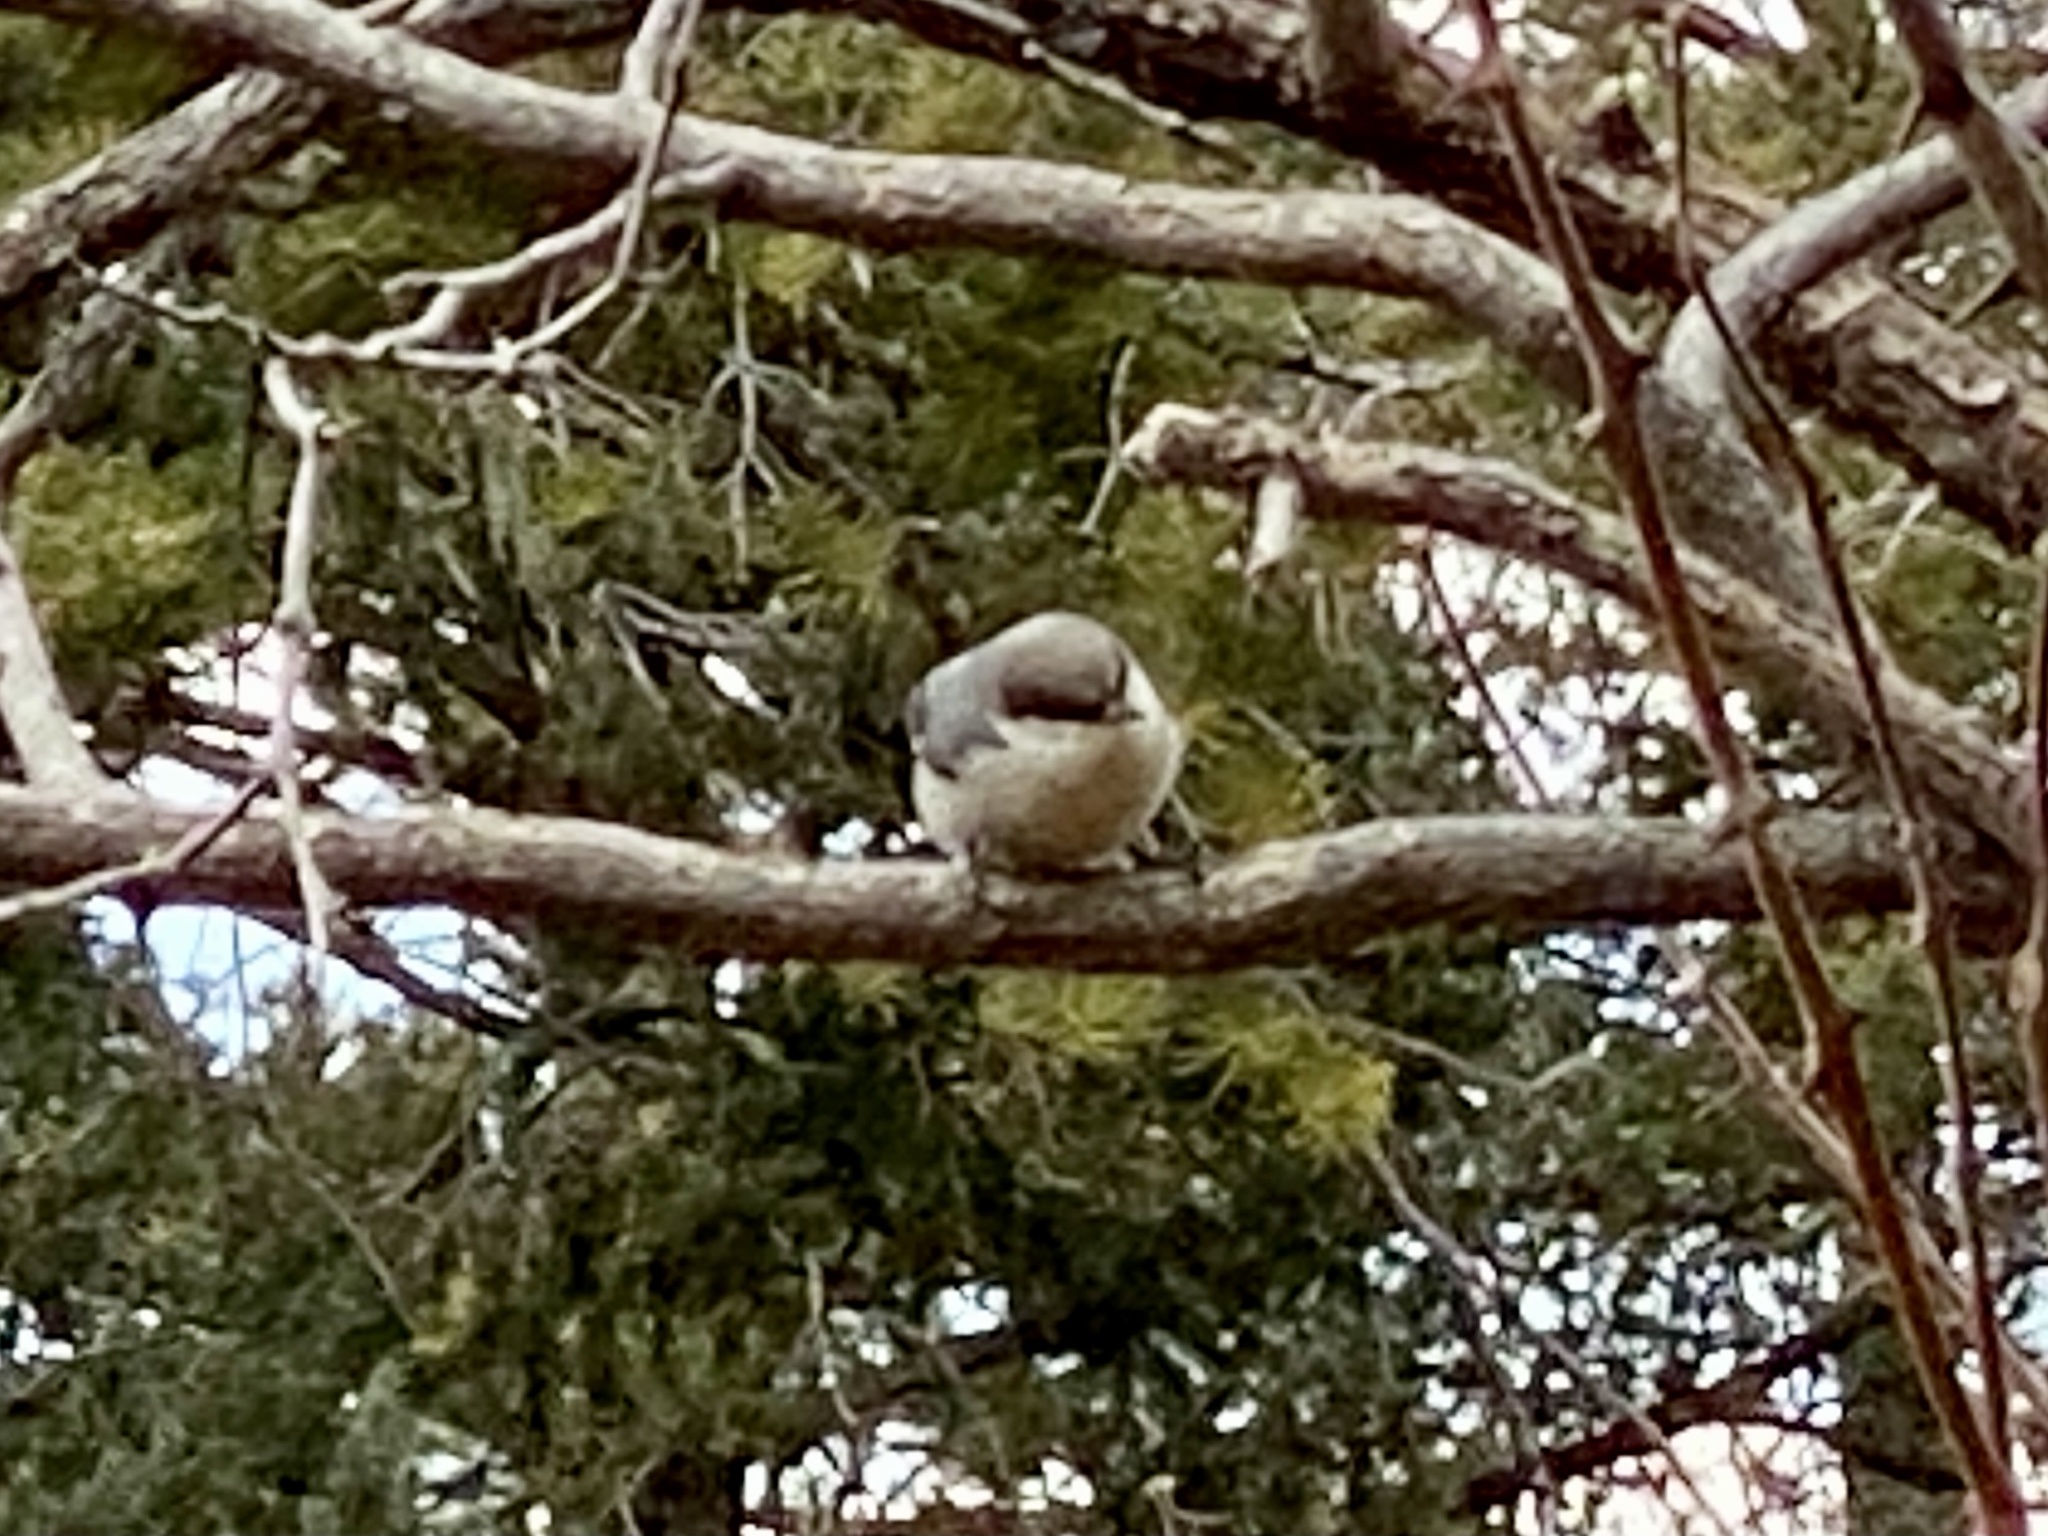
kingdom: Animalia
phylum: Chordata
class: Aves
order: Passeriformes
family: Sittidae
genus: Sitta
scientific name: Sitta pygmaea
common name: Pygmy nuthatch
